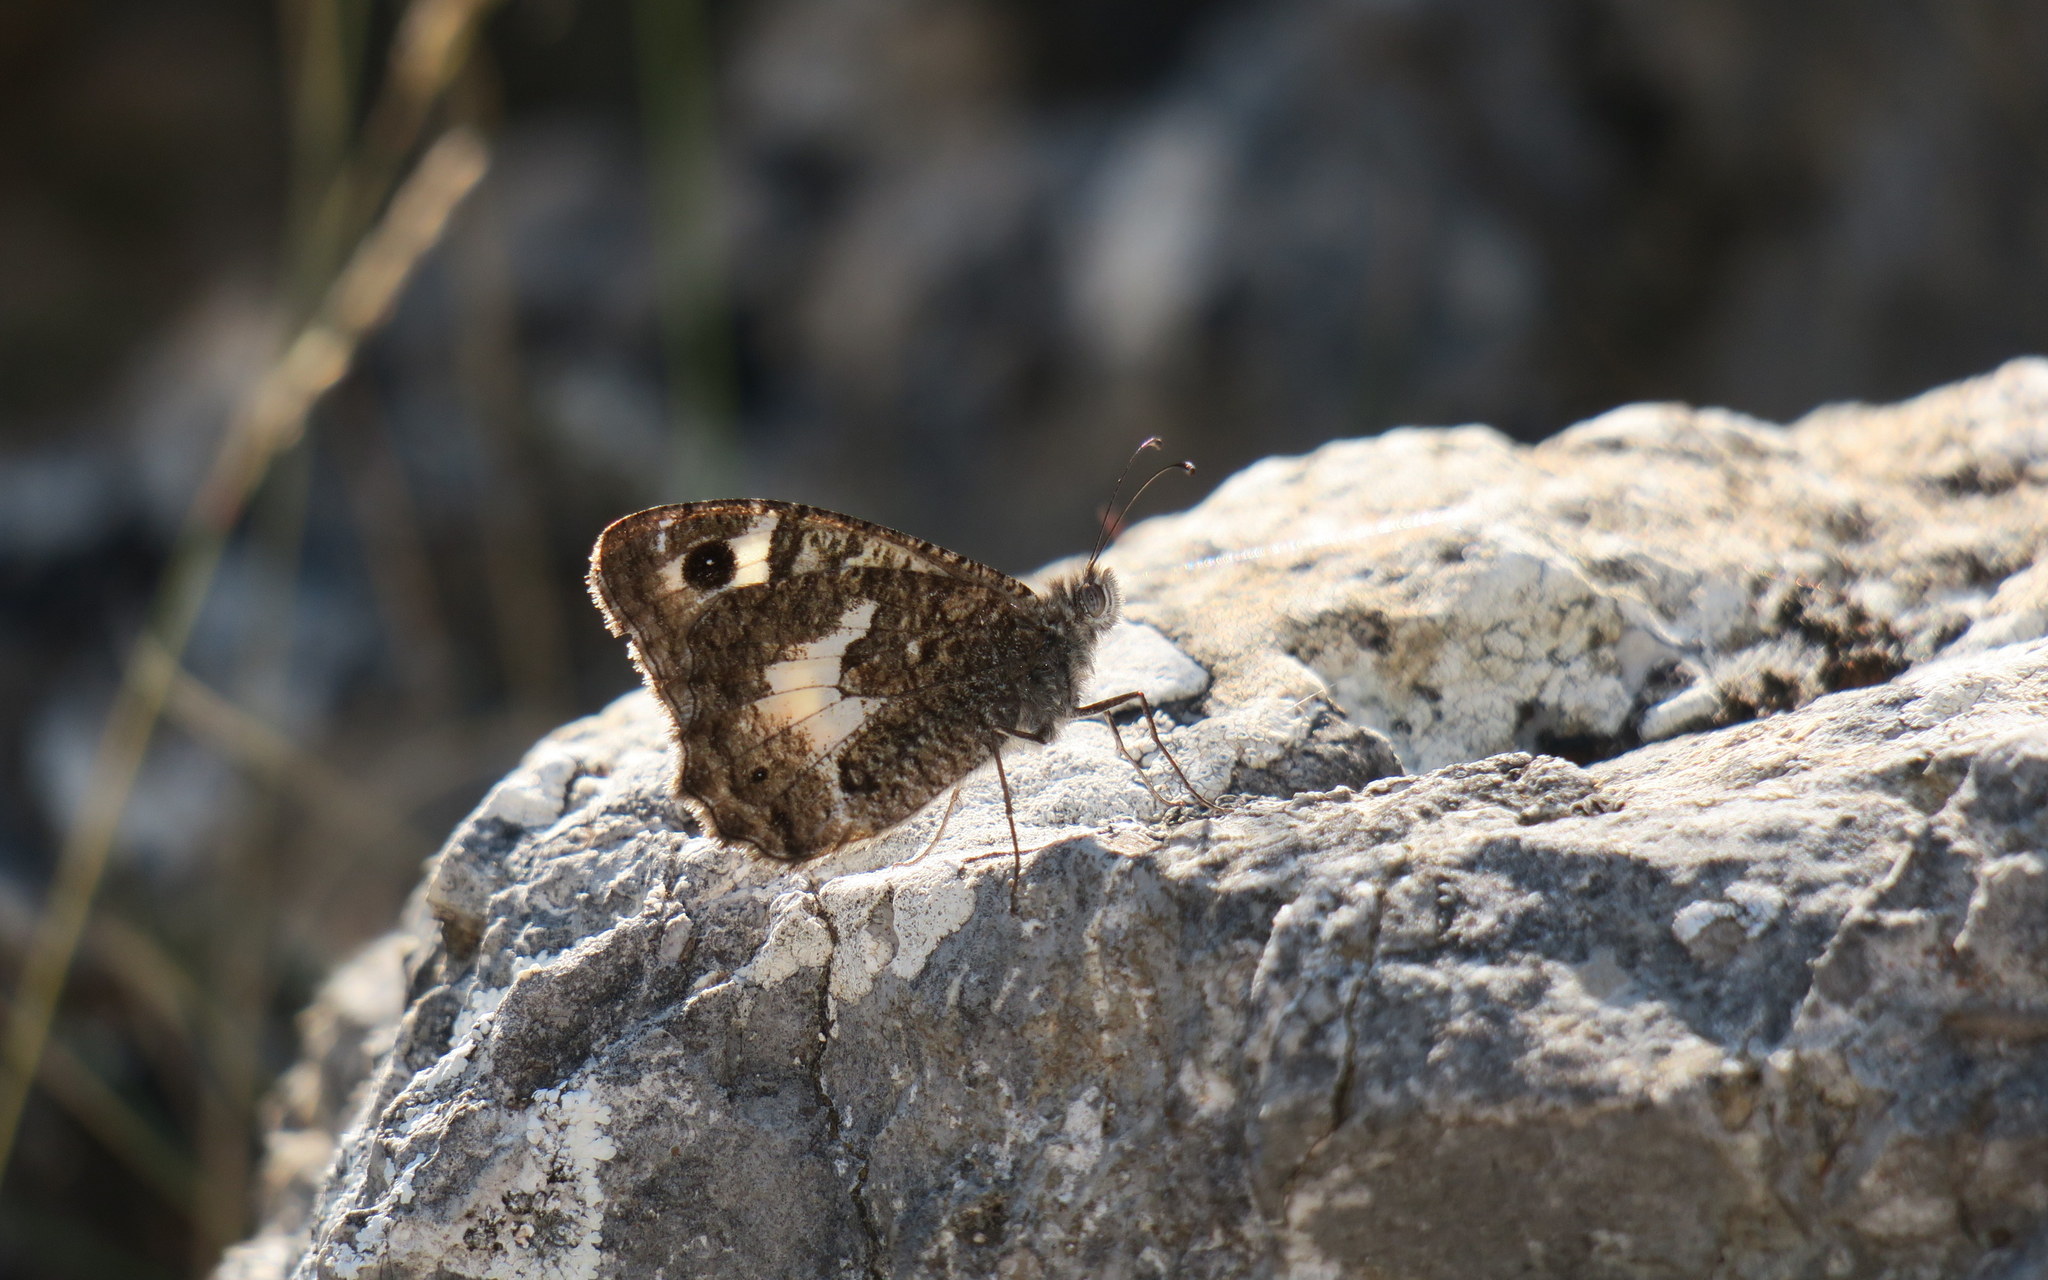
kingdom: Animalia
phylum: Arthropoda
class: Insecta
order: Lepidoptera
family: Nymphalidae
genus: Pseudochazara
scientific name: Pseudochazara anthelea
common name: White-banded grayling
